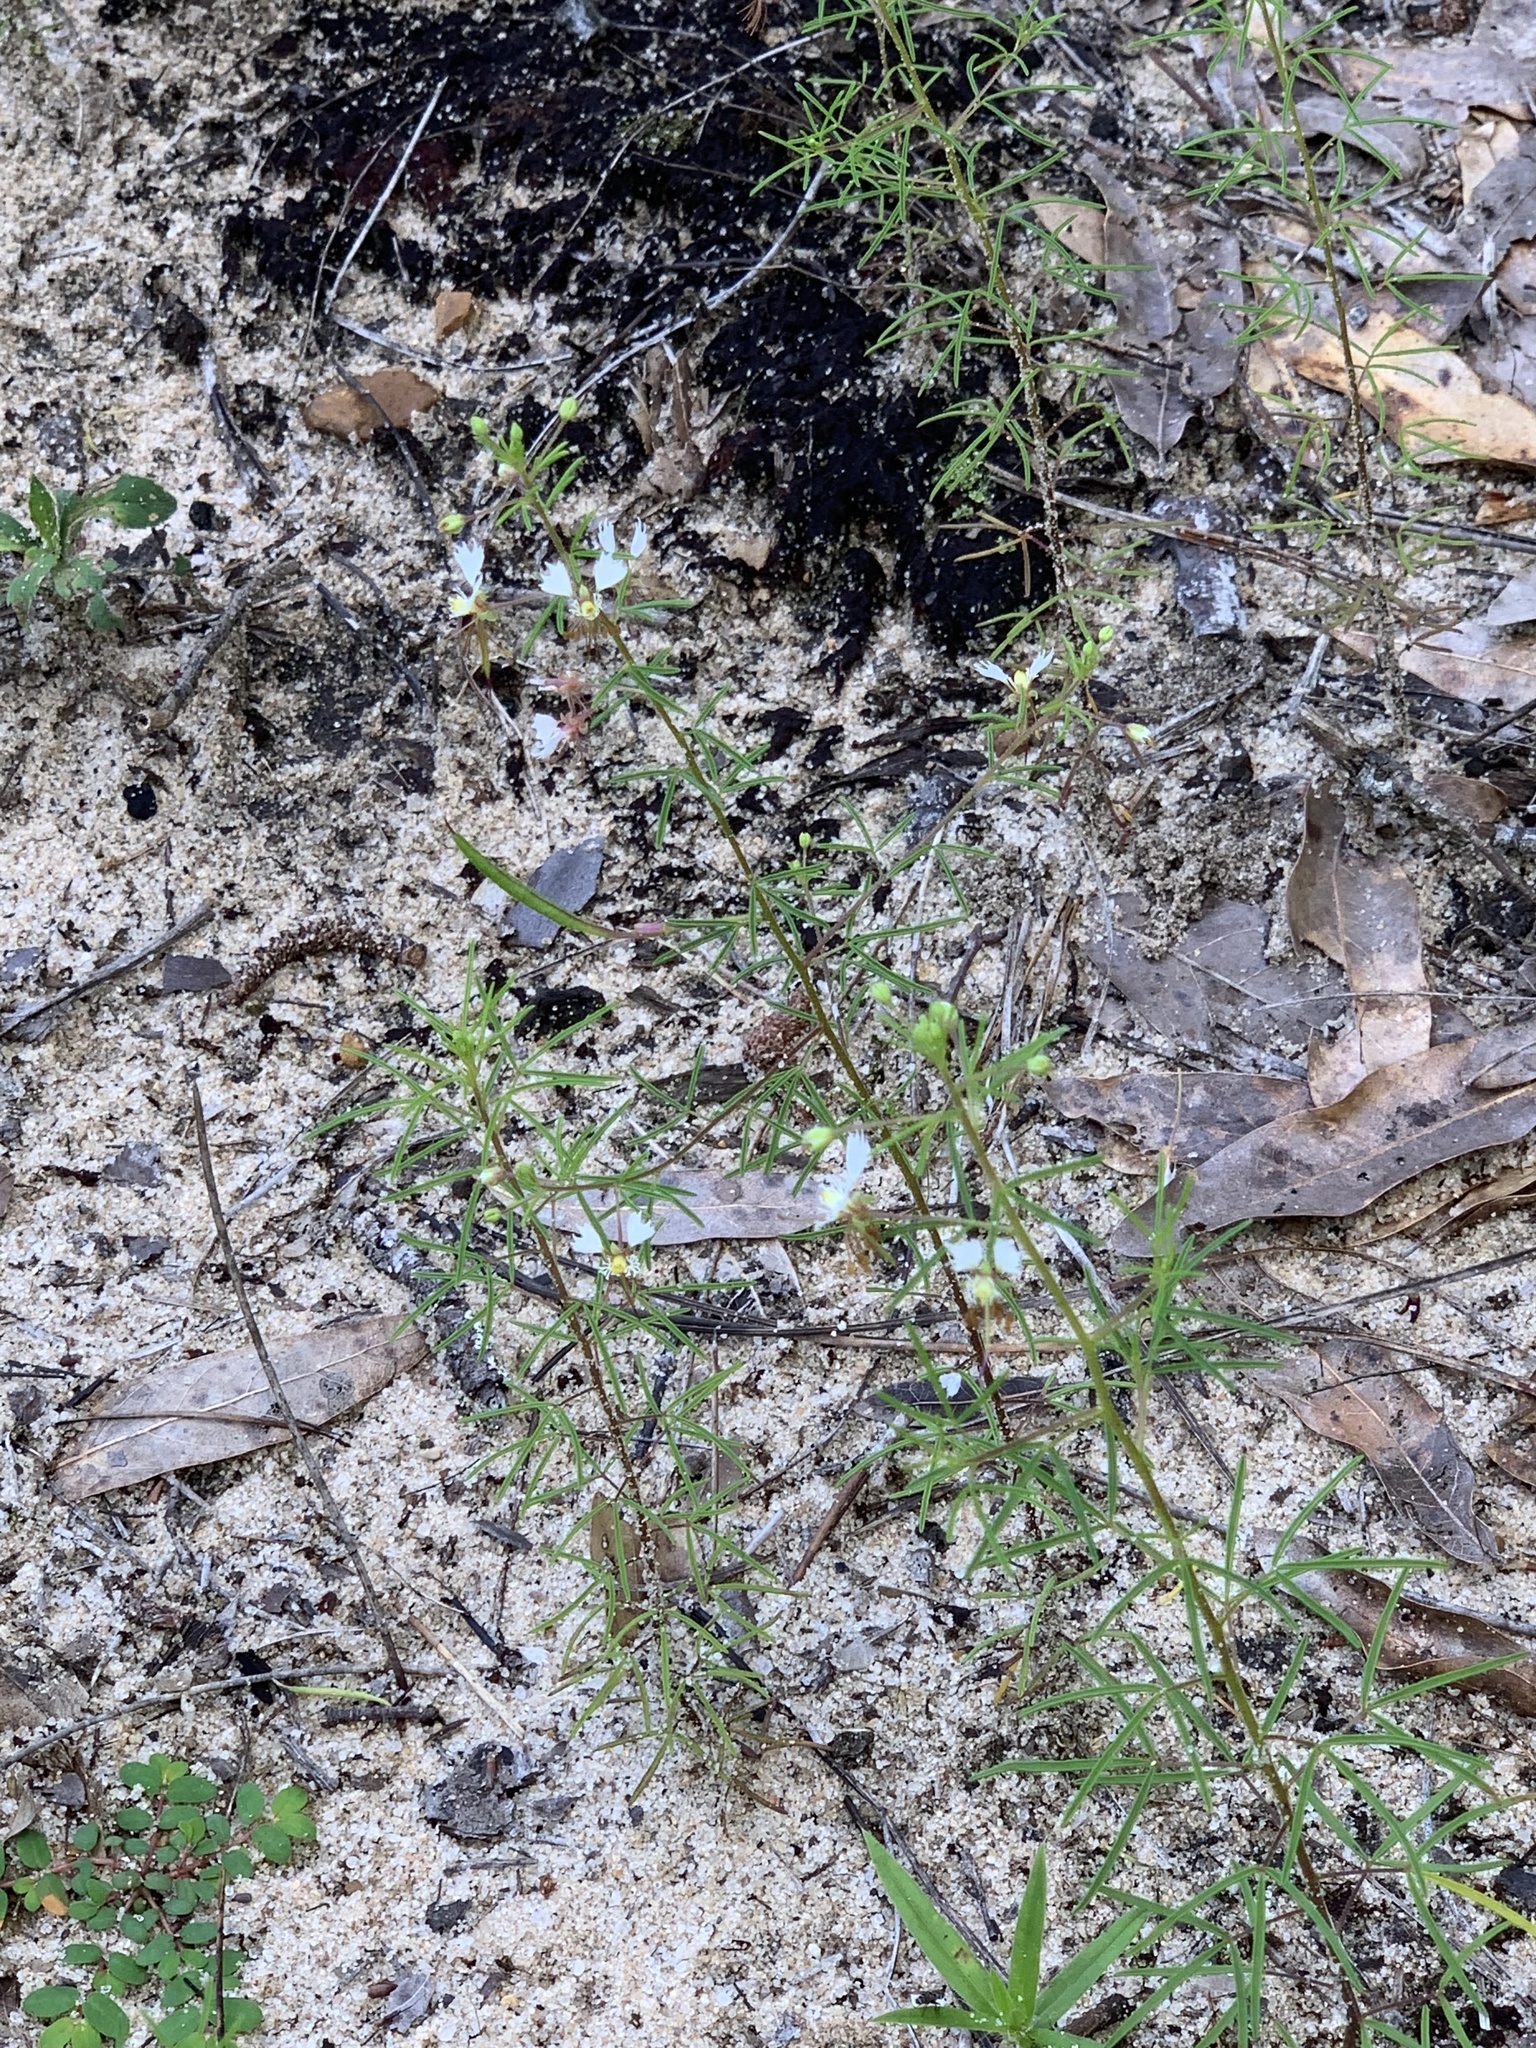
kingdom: Plantae
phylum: Tracheophyta
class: Magnoliopsida
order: Brassicales
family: Cleomaceae
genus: Polanisia
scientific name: Polanisia erosa
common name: Large clammyweed
